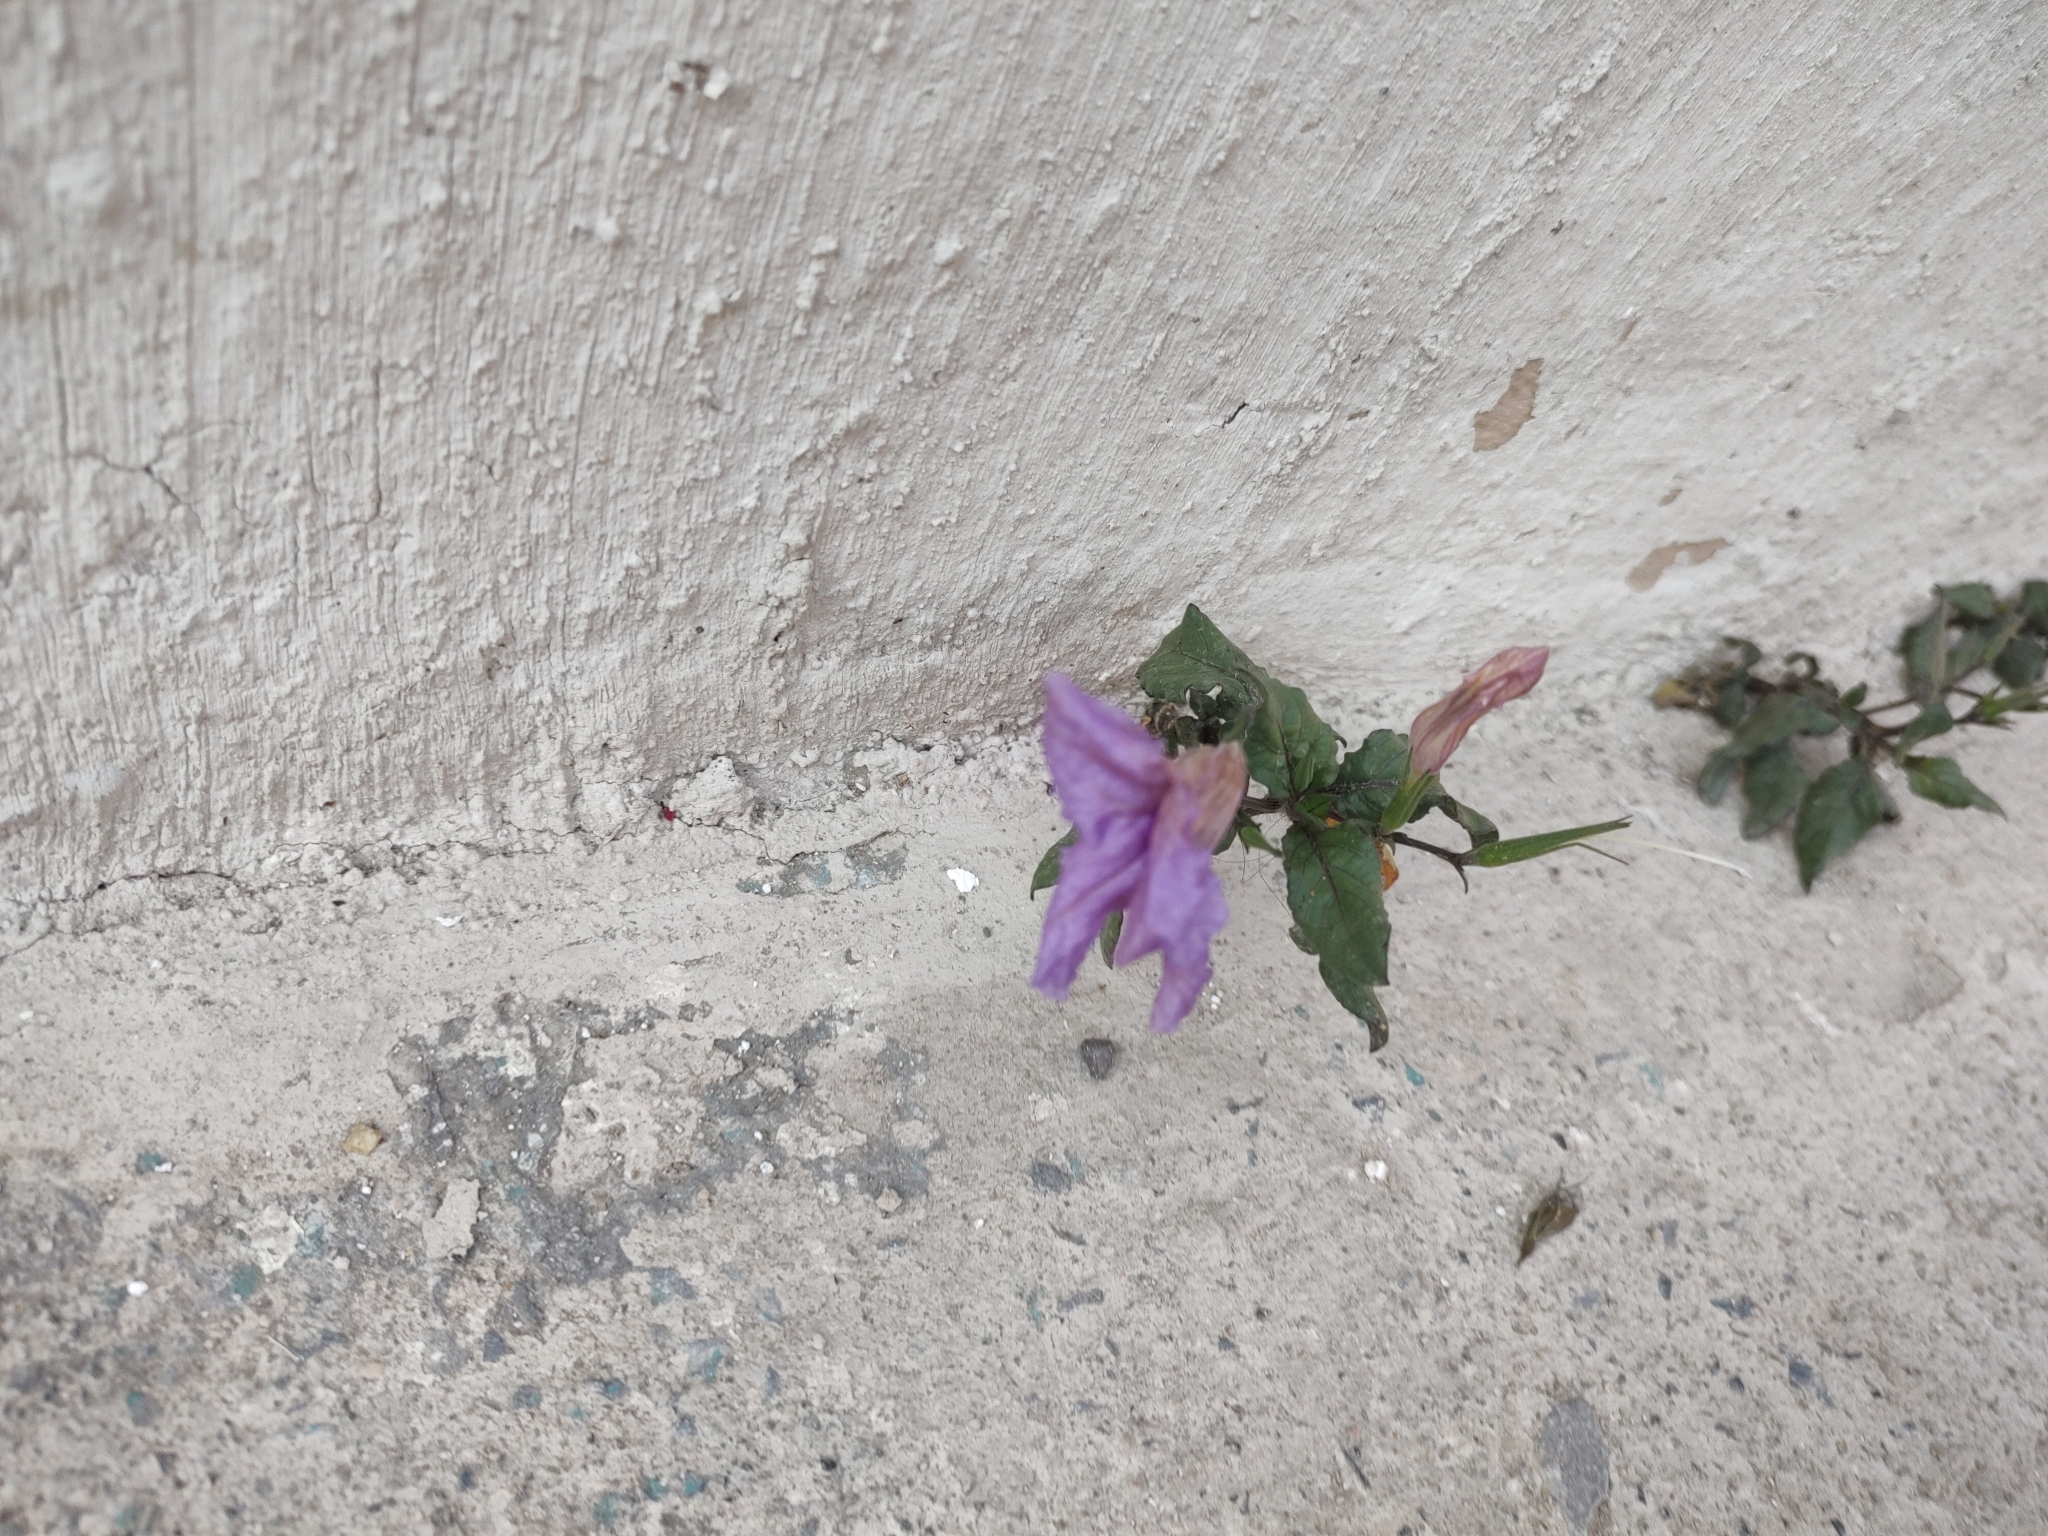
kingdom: Plantae
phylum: Tracheophyta
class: Magnoliopsida
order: Lamiales
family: Acanthaceae
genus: Ruellia
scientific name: Ruellia ciliatiflora
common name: Hairyflower wild petunia
